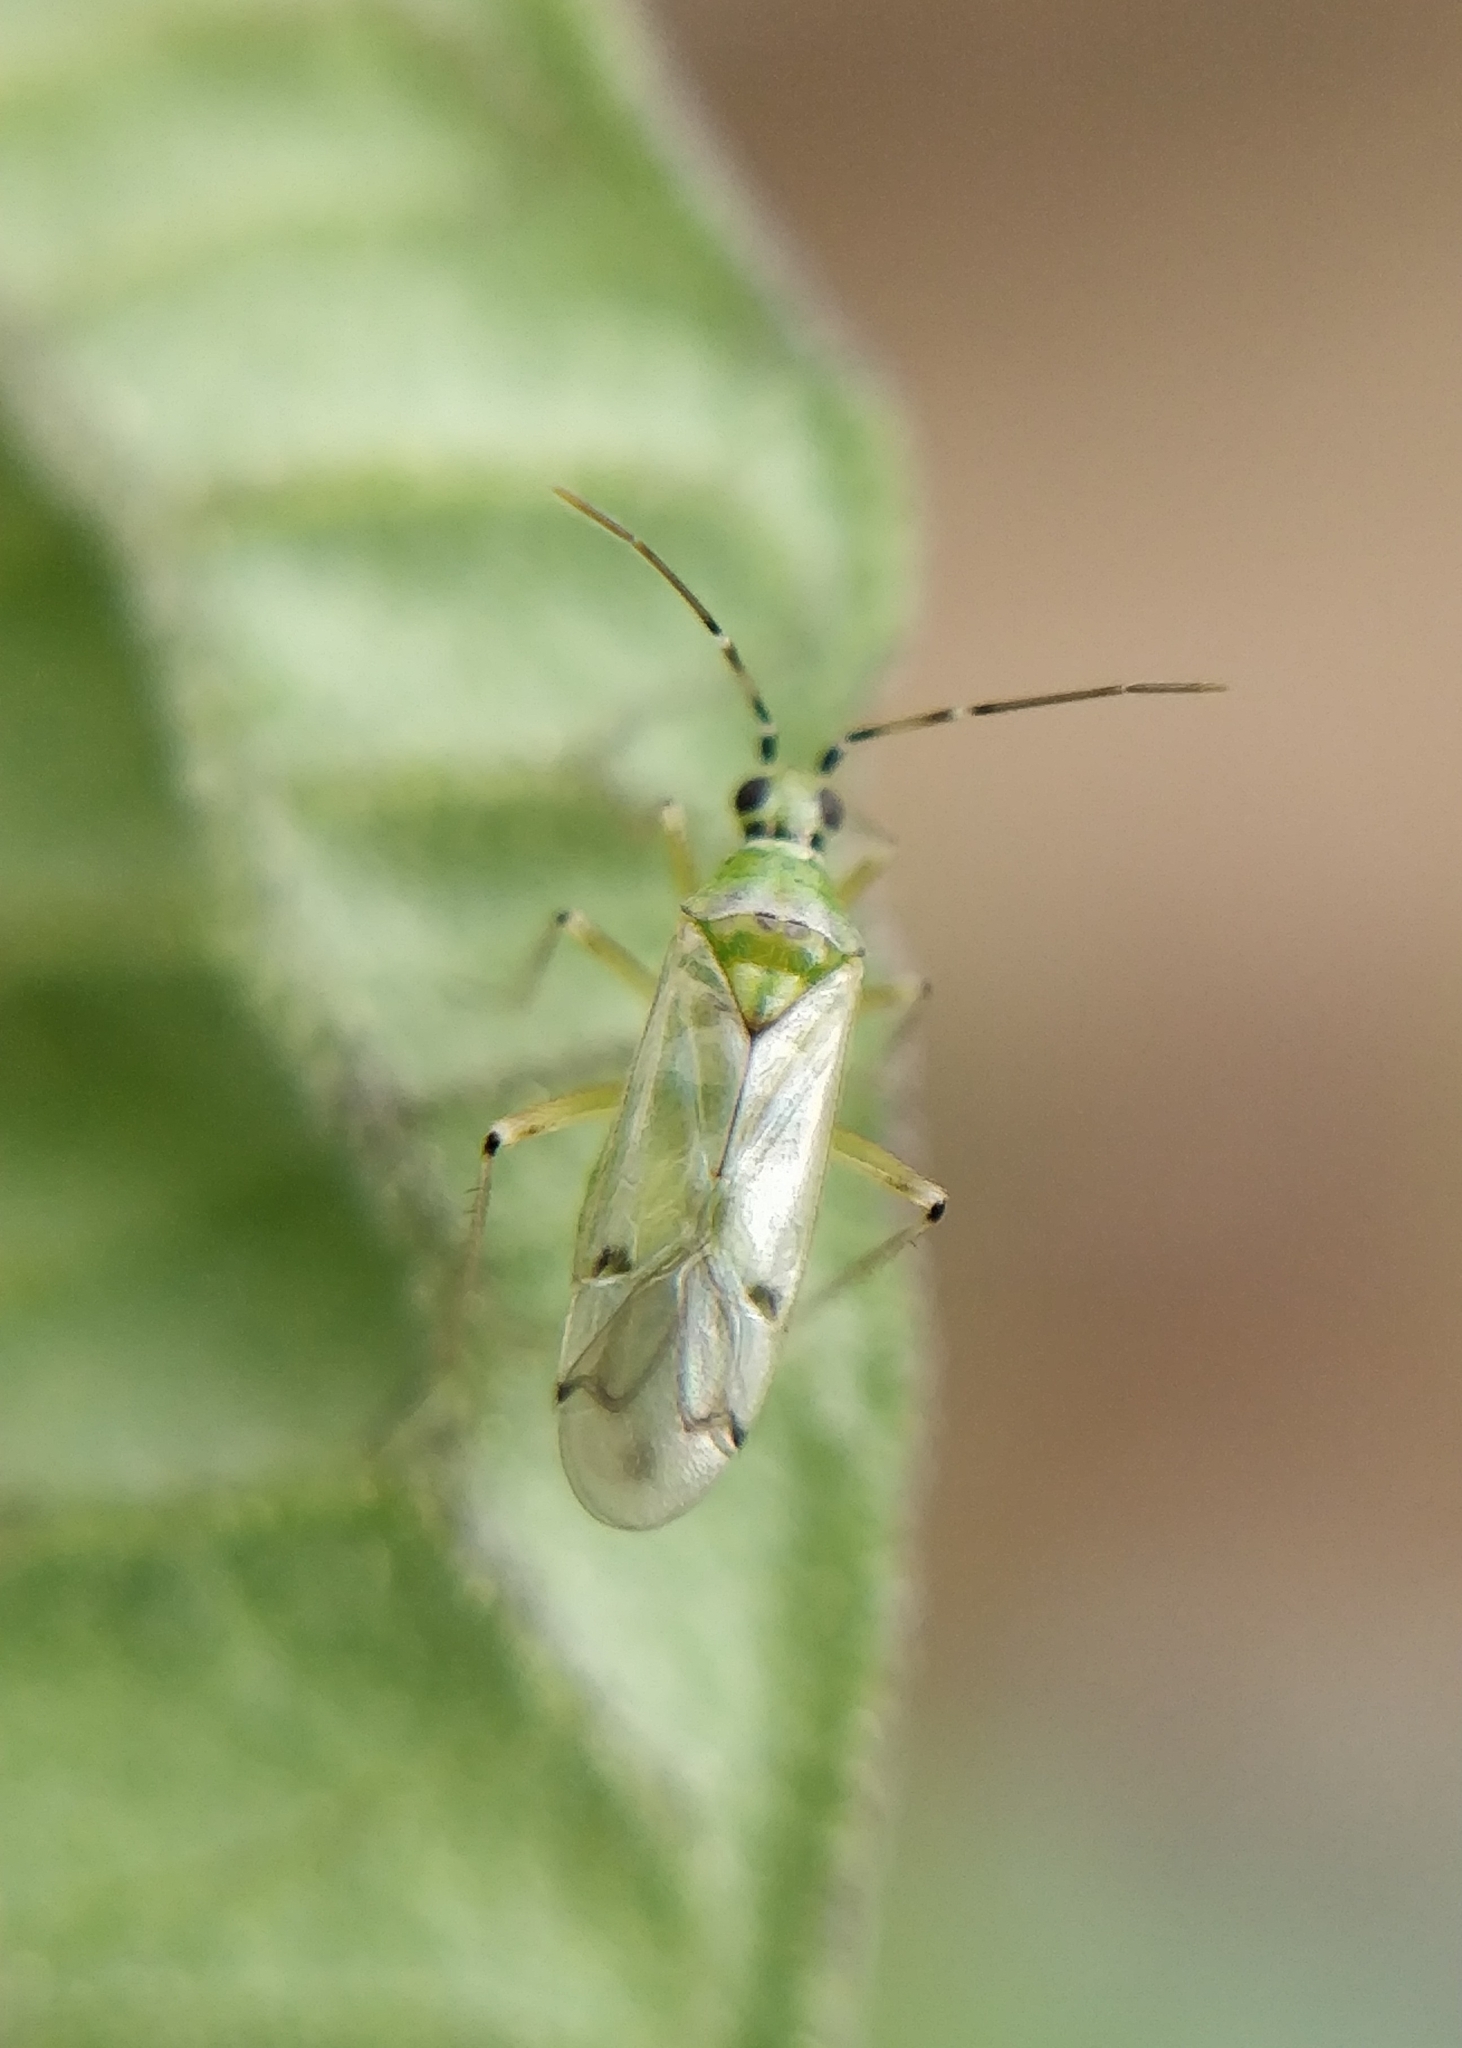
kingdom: Animalia
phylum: Arthropoda
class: Insecta
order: Hemiptera
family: Miridae
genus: Nesidiocoris
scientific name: Nesidiocoris tenuis
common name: Plant bug
